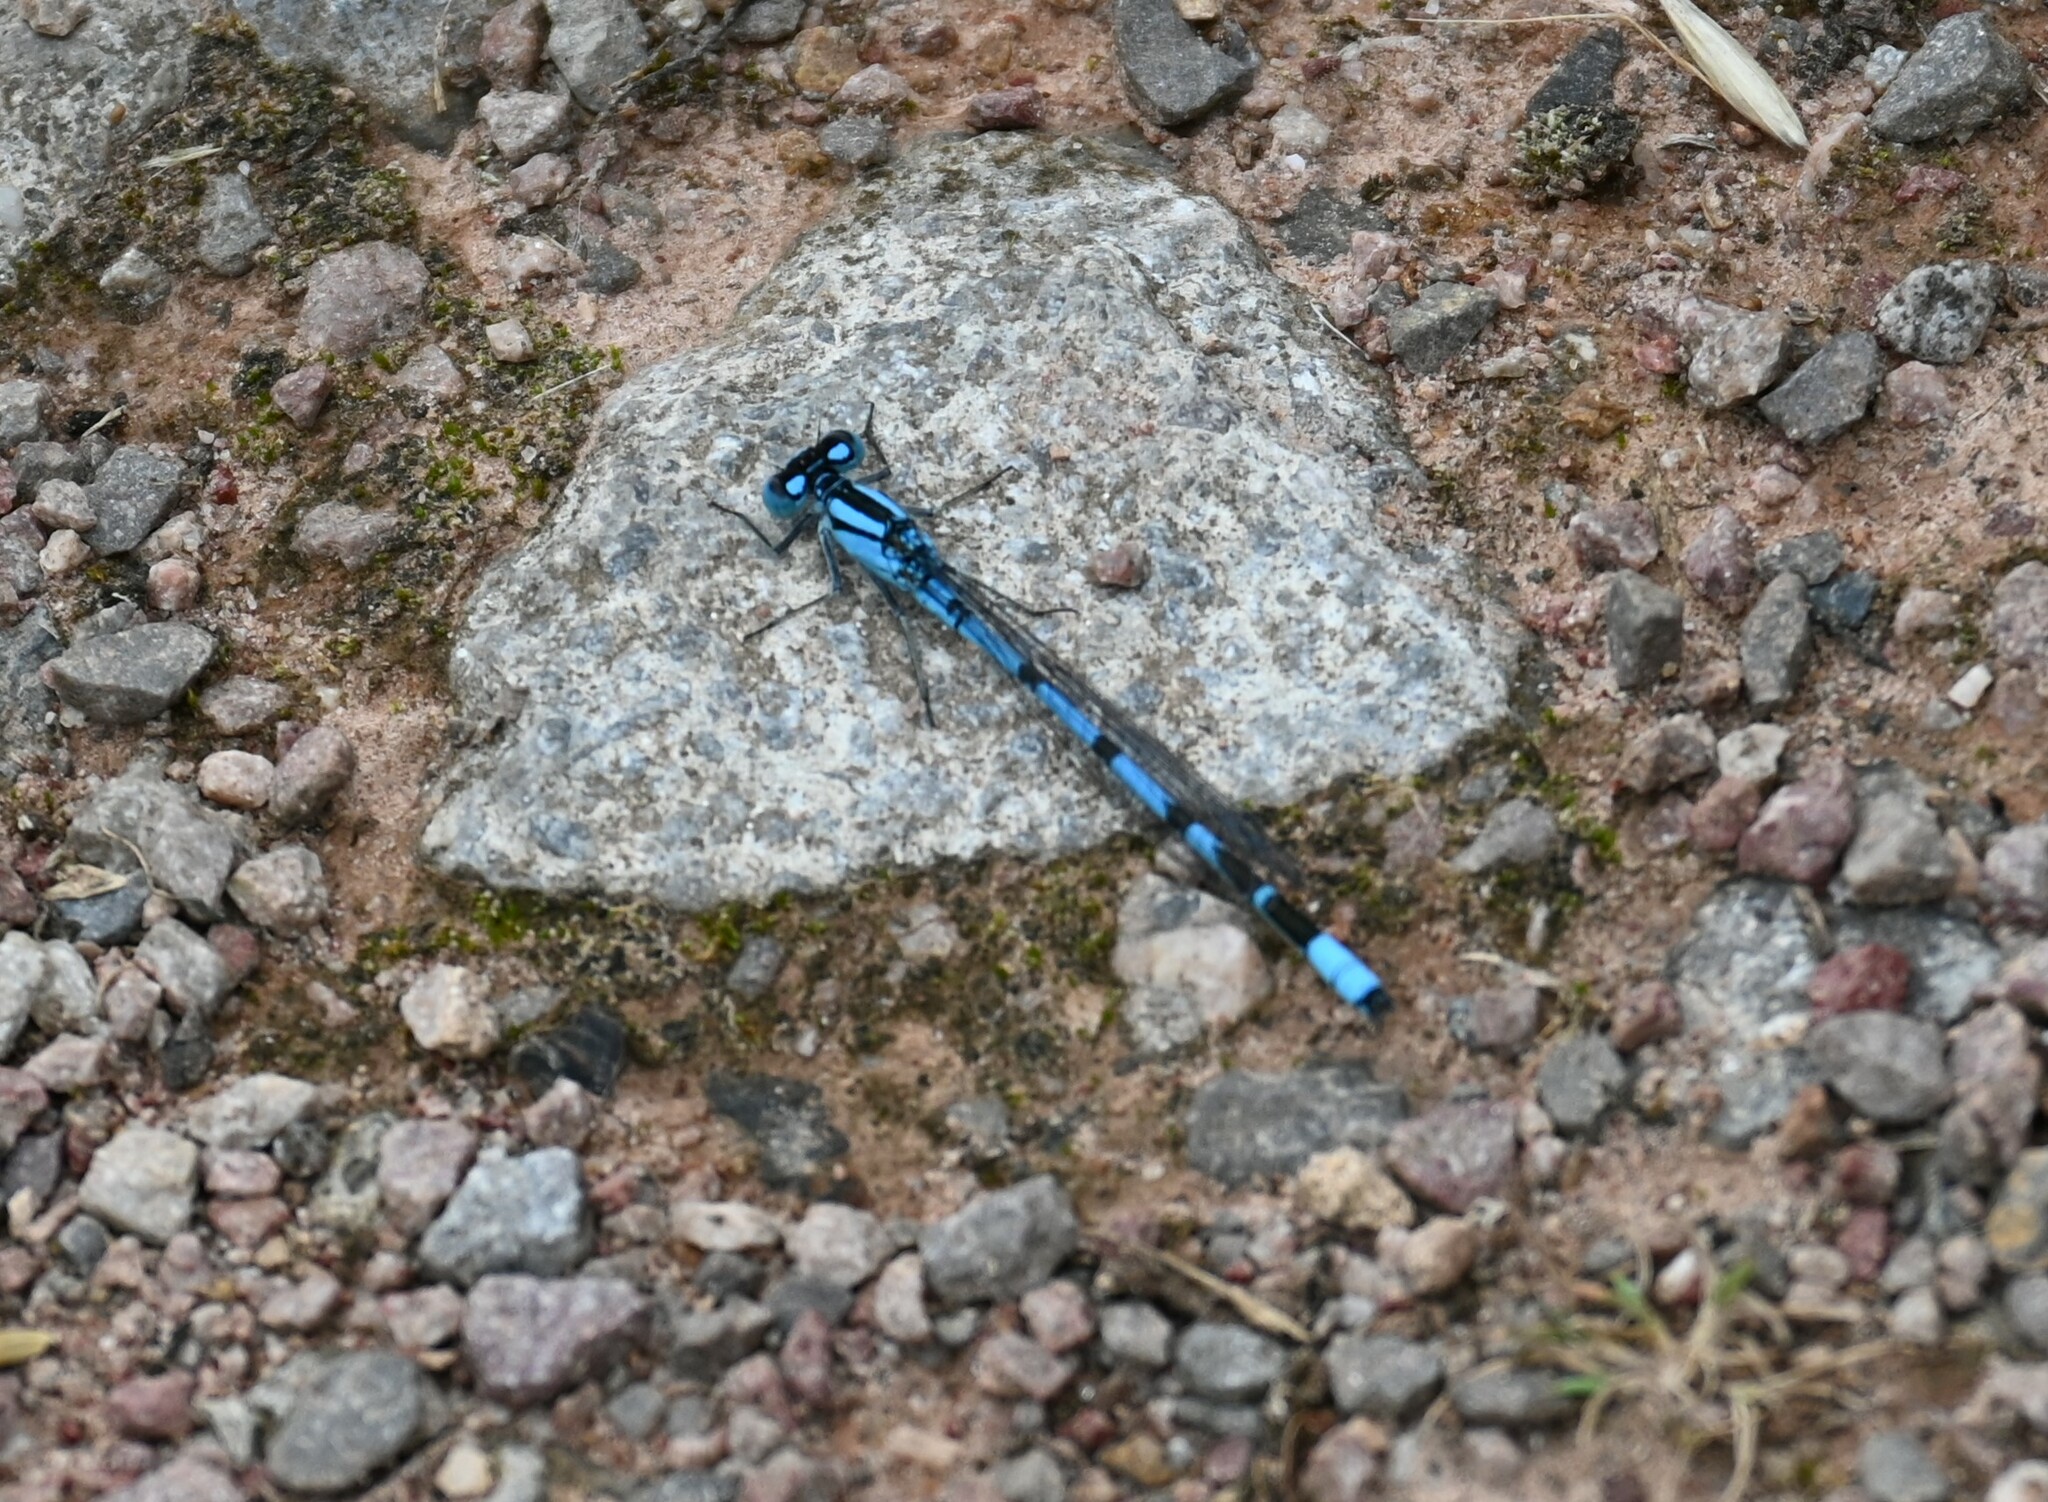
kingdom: Animalia
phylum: Arthropoda
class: Insecta
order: Odonata
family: Coenagrionidae
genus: Enallagma
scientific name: Enallagma cyathigerum
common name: Common blue damselfly
